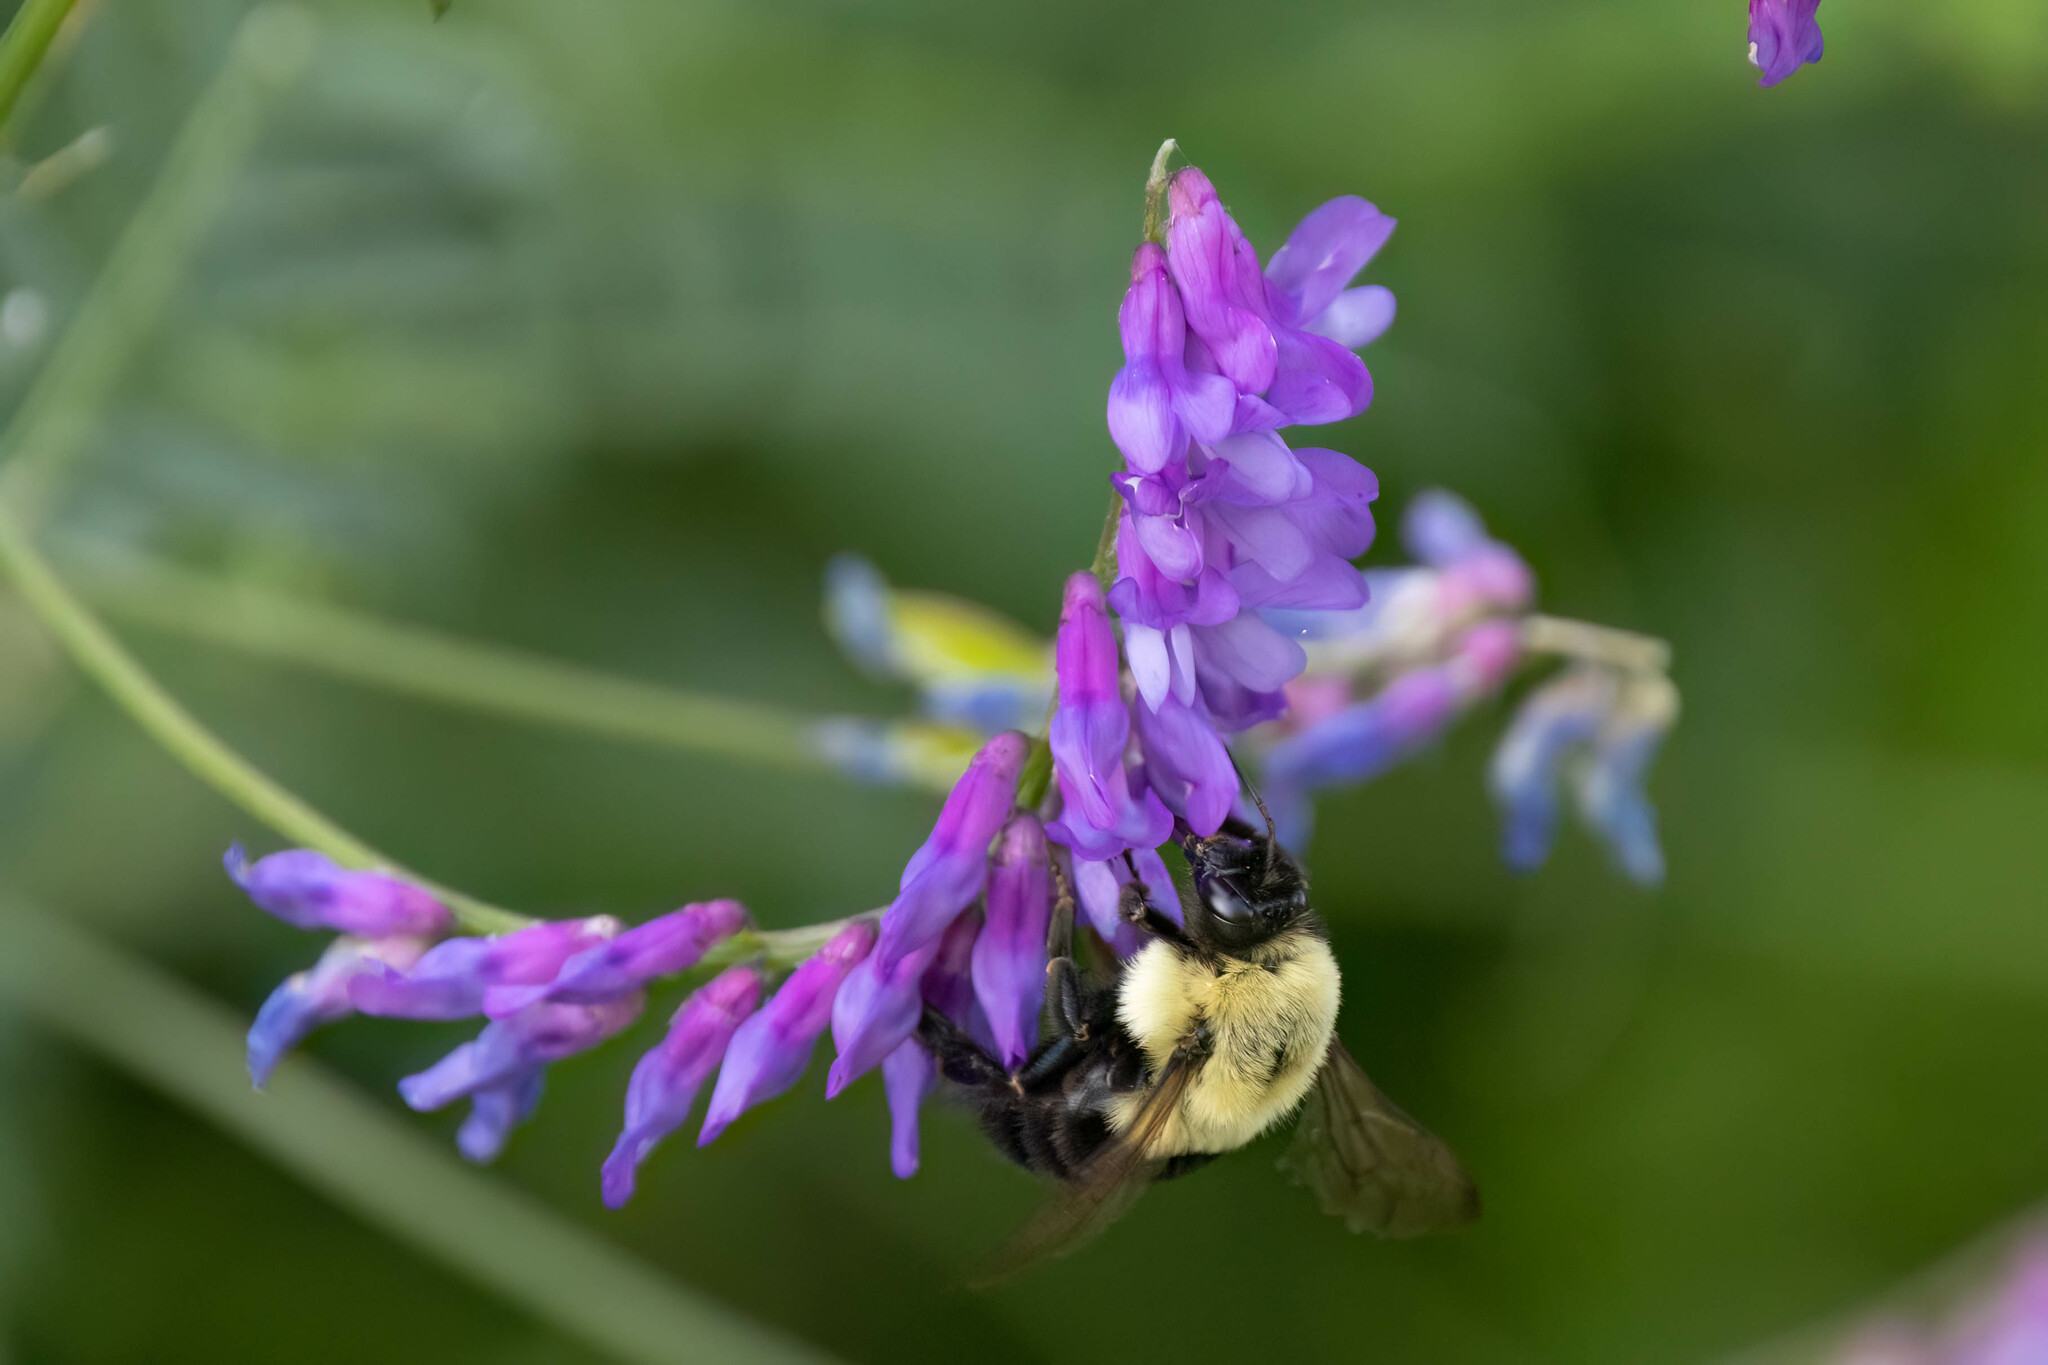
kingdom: Animalia
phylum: Arthropoda
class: Insecta
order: Hymenoptera
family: Apidae
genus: Bombus
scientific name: Bombus impatiens
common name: Common eastern bumble bee
